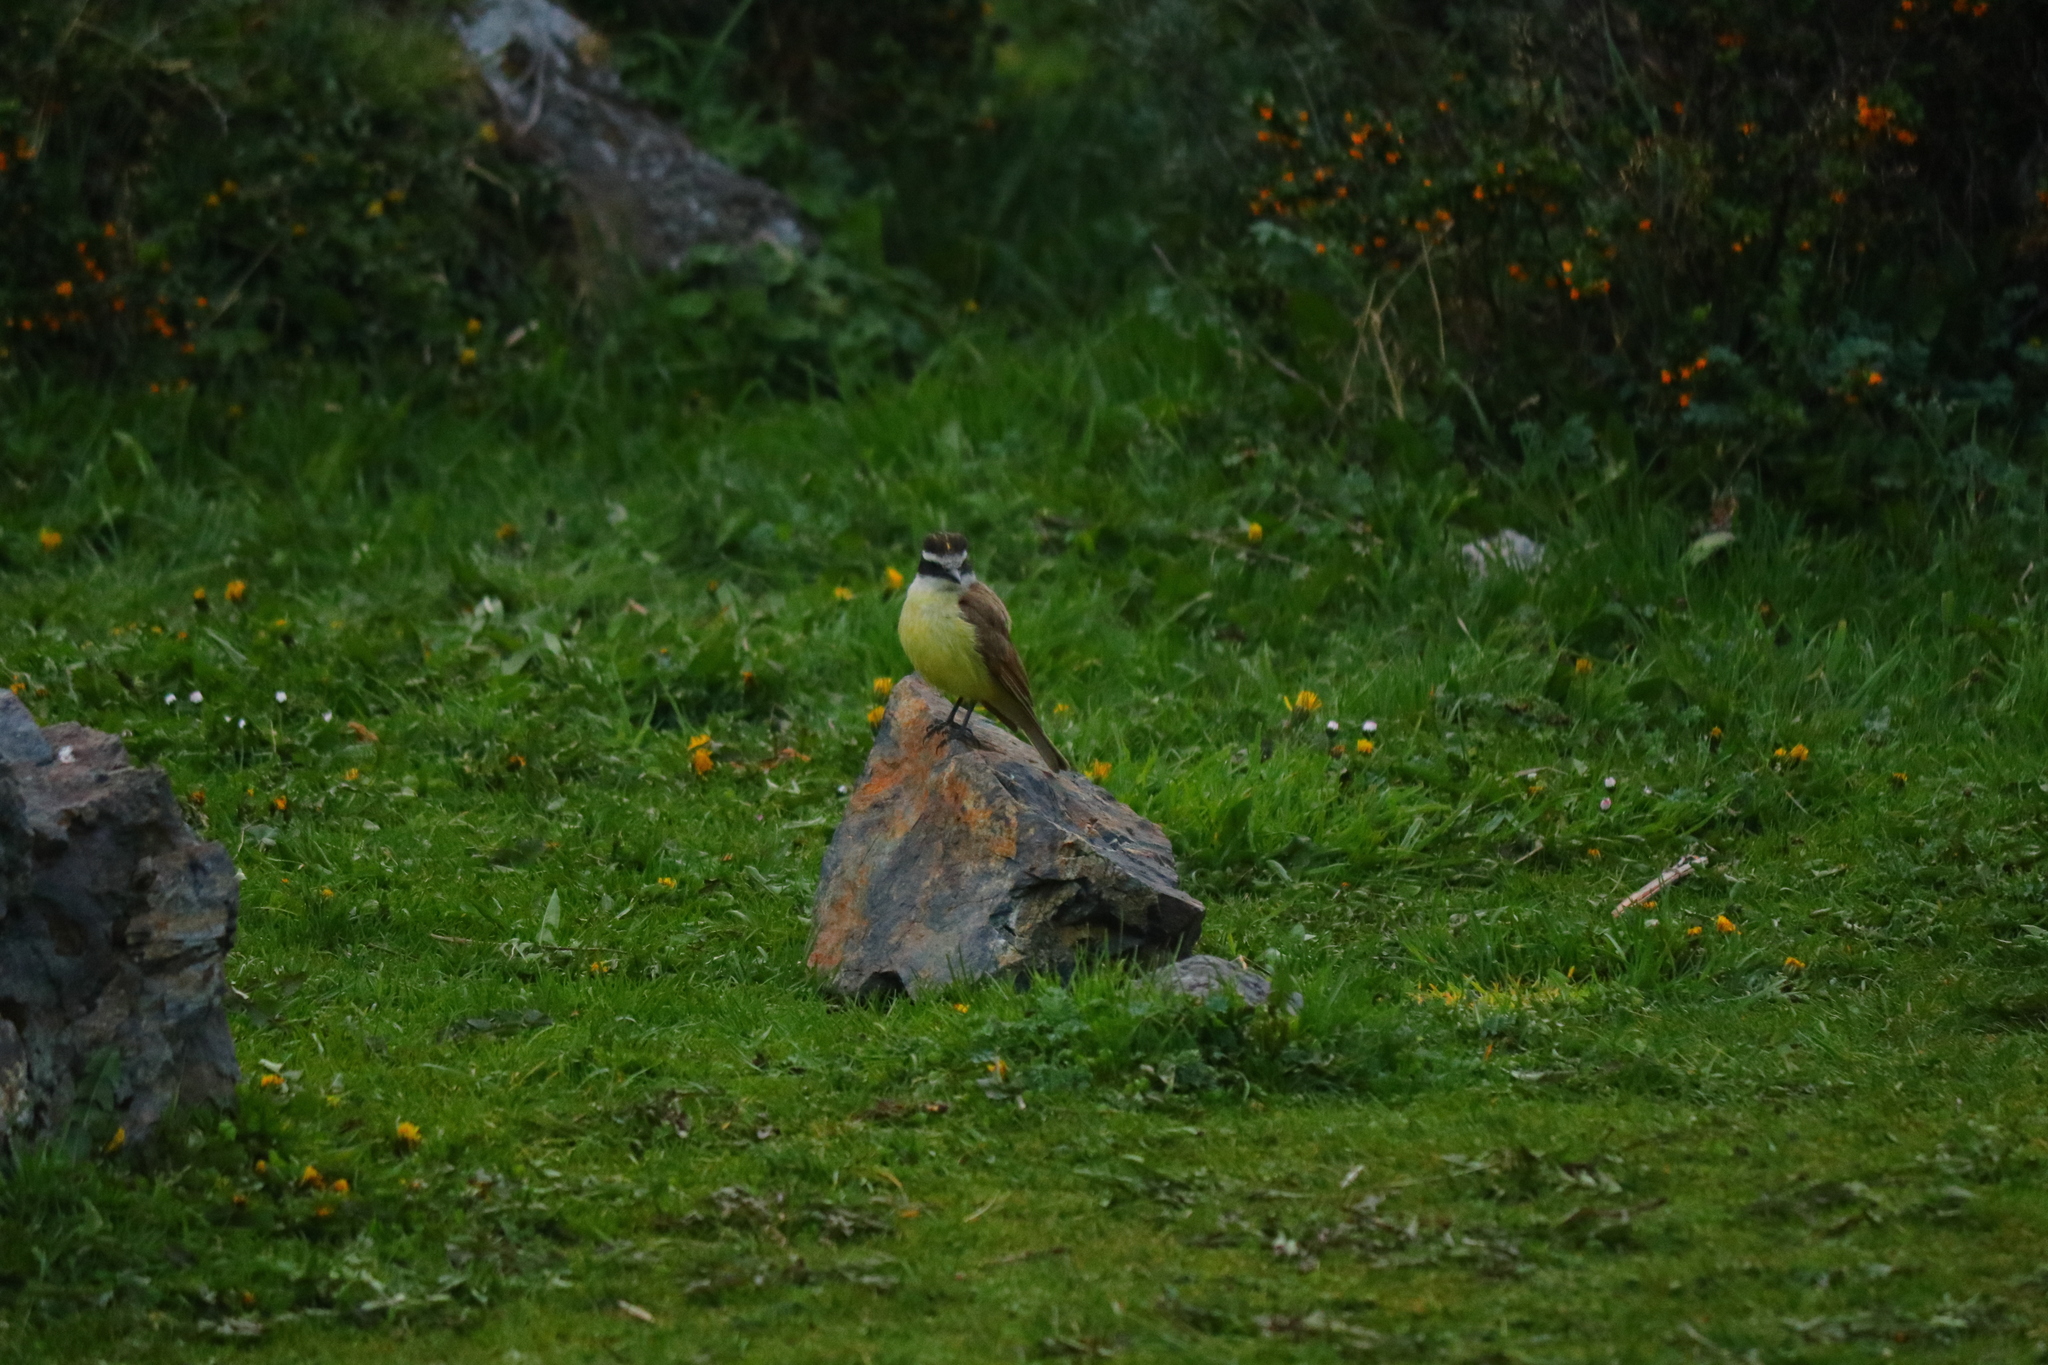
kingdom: Animalia
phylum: Chordata
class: Aves
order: Passeriformes
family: Tyrannidae
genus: Pitangus
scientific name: Pitangus sulphuratus
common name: Great kiskadee
